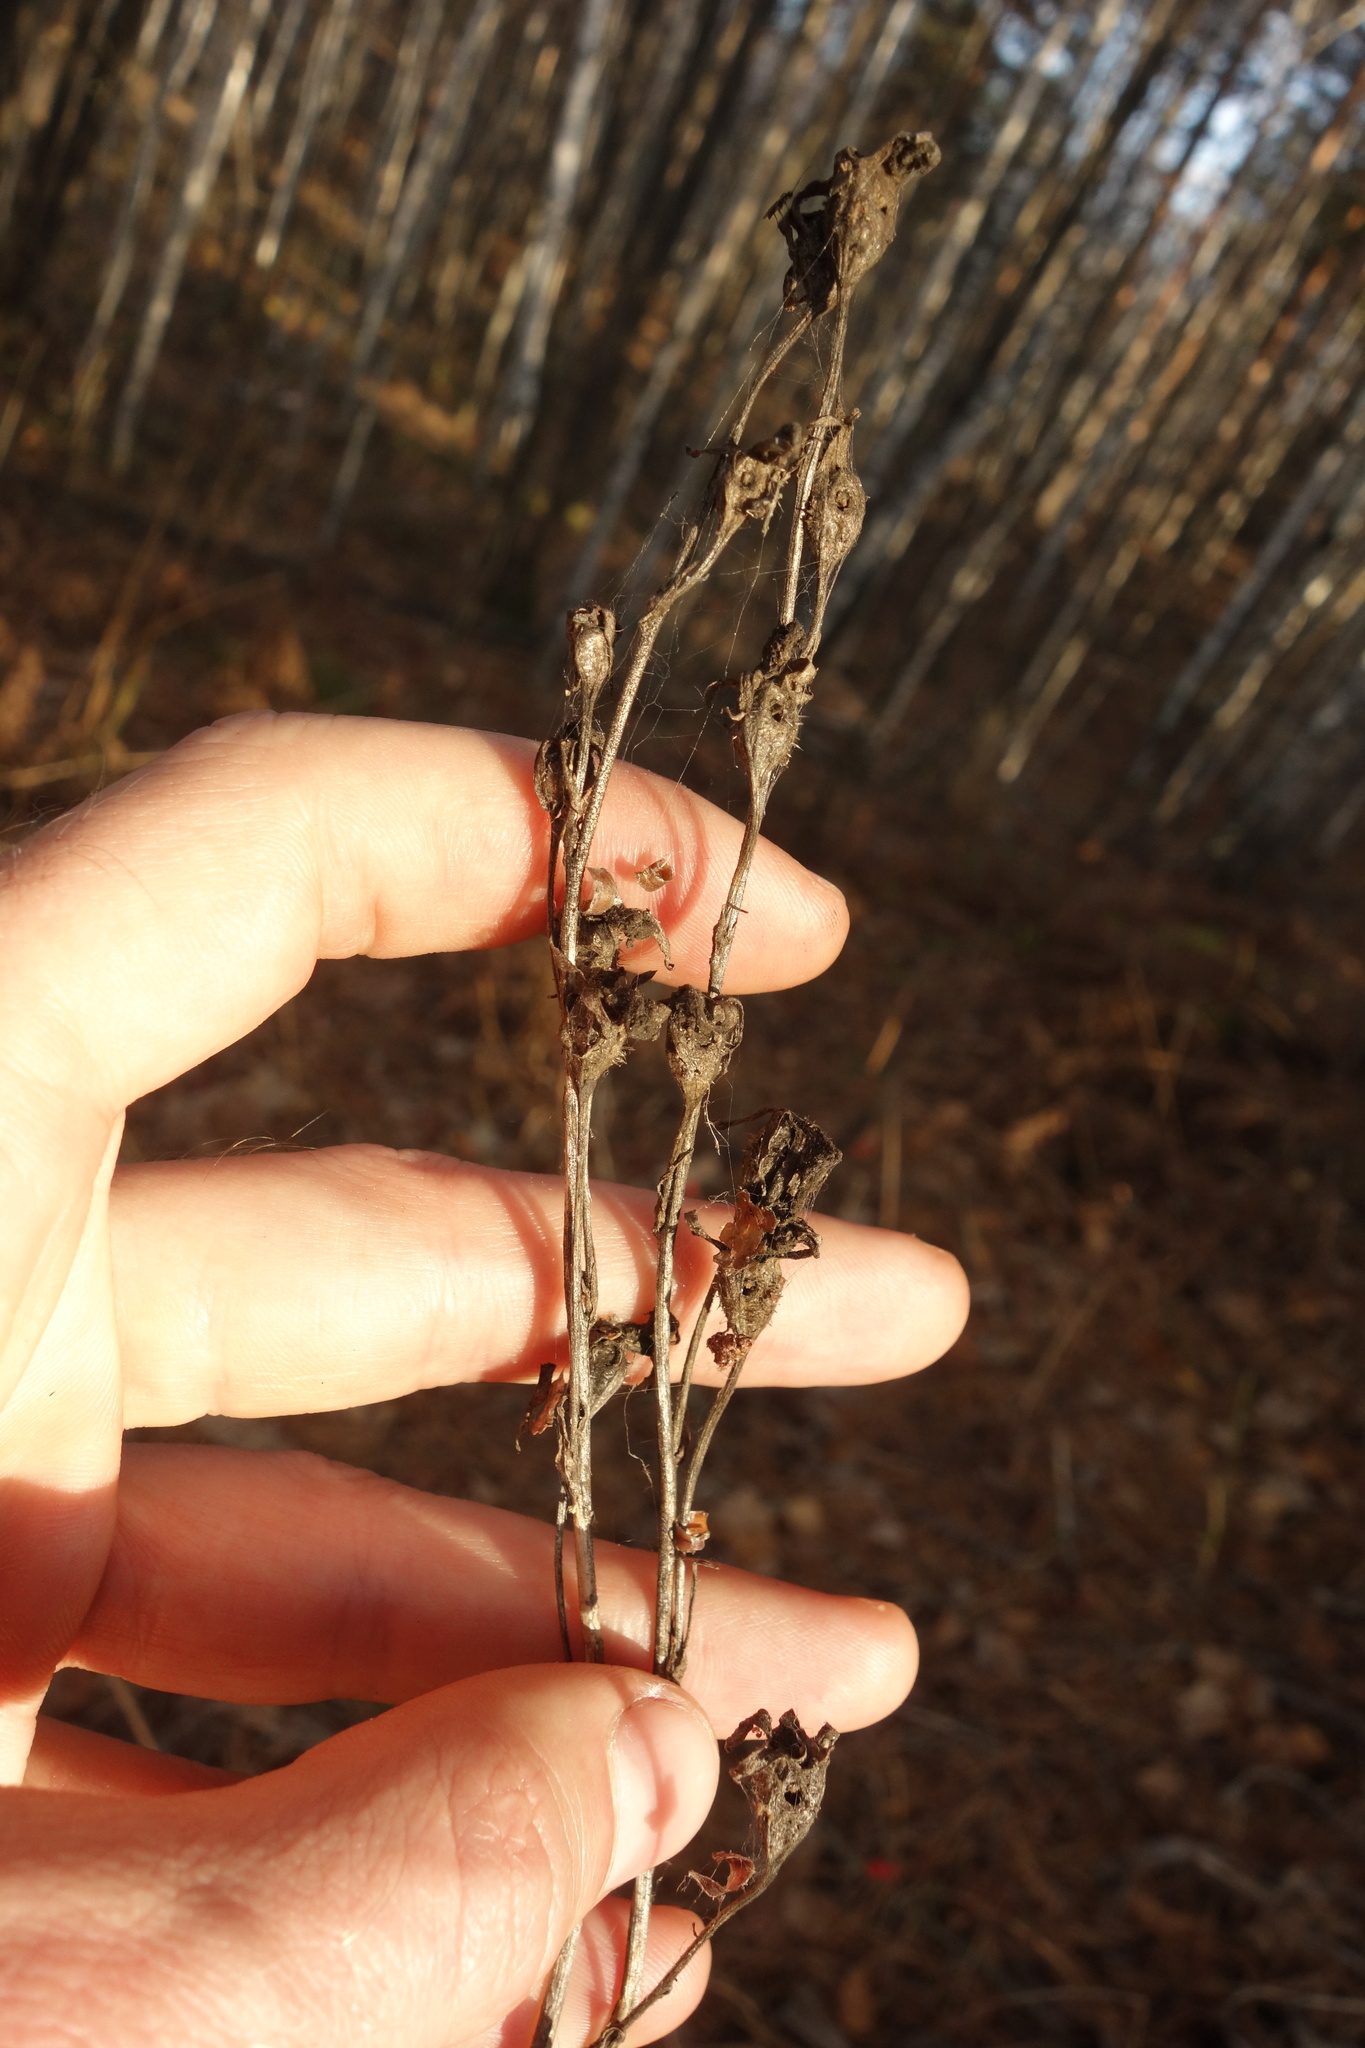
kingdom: Plantae
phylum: Tracheophyta
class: Magnoliopsida
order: Asterales
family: Campanulaceae
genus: Campanula
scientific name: Campanula persicifolia
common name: Peach-leaved bellflower
